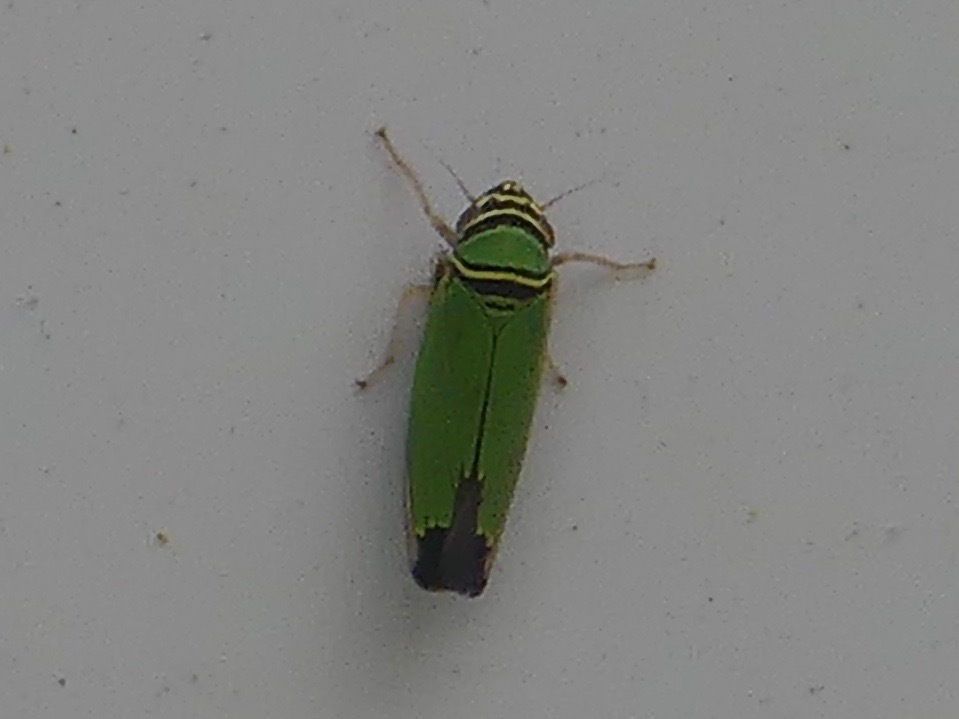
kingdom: Animalia
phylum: Arthropoda
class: Insecta
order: Hemiptera
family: Cicadellidae
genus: Tylozygus
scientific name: Tylozygus geometricus
